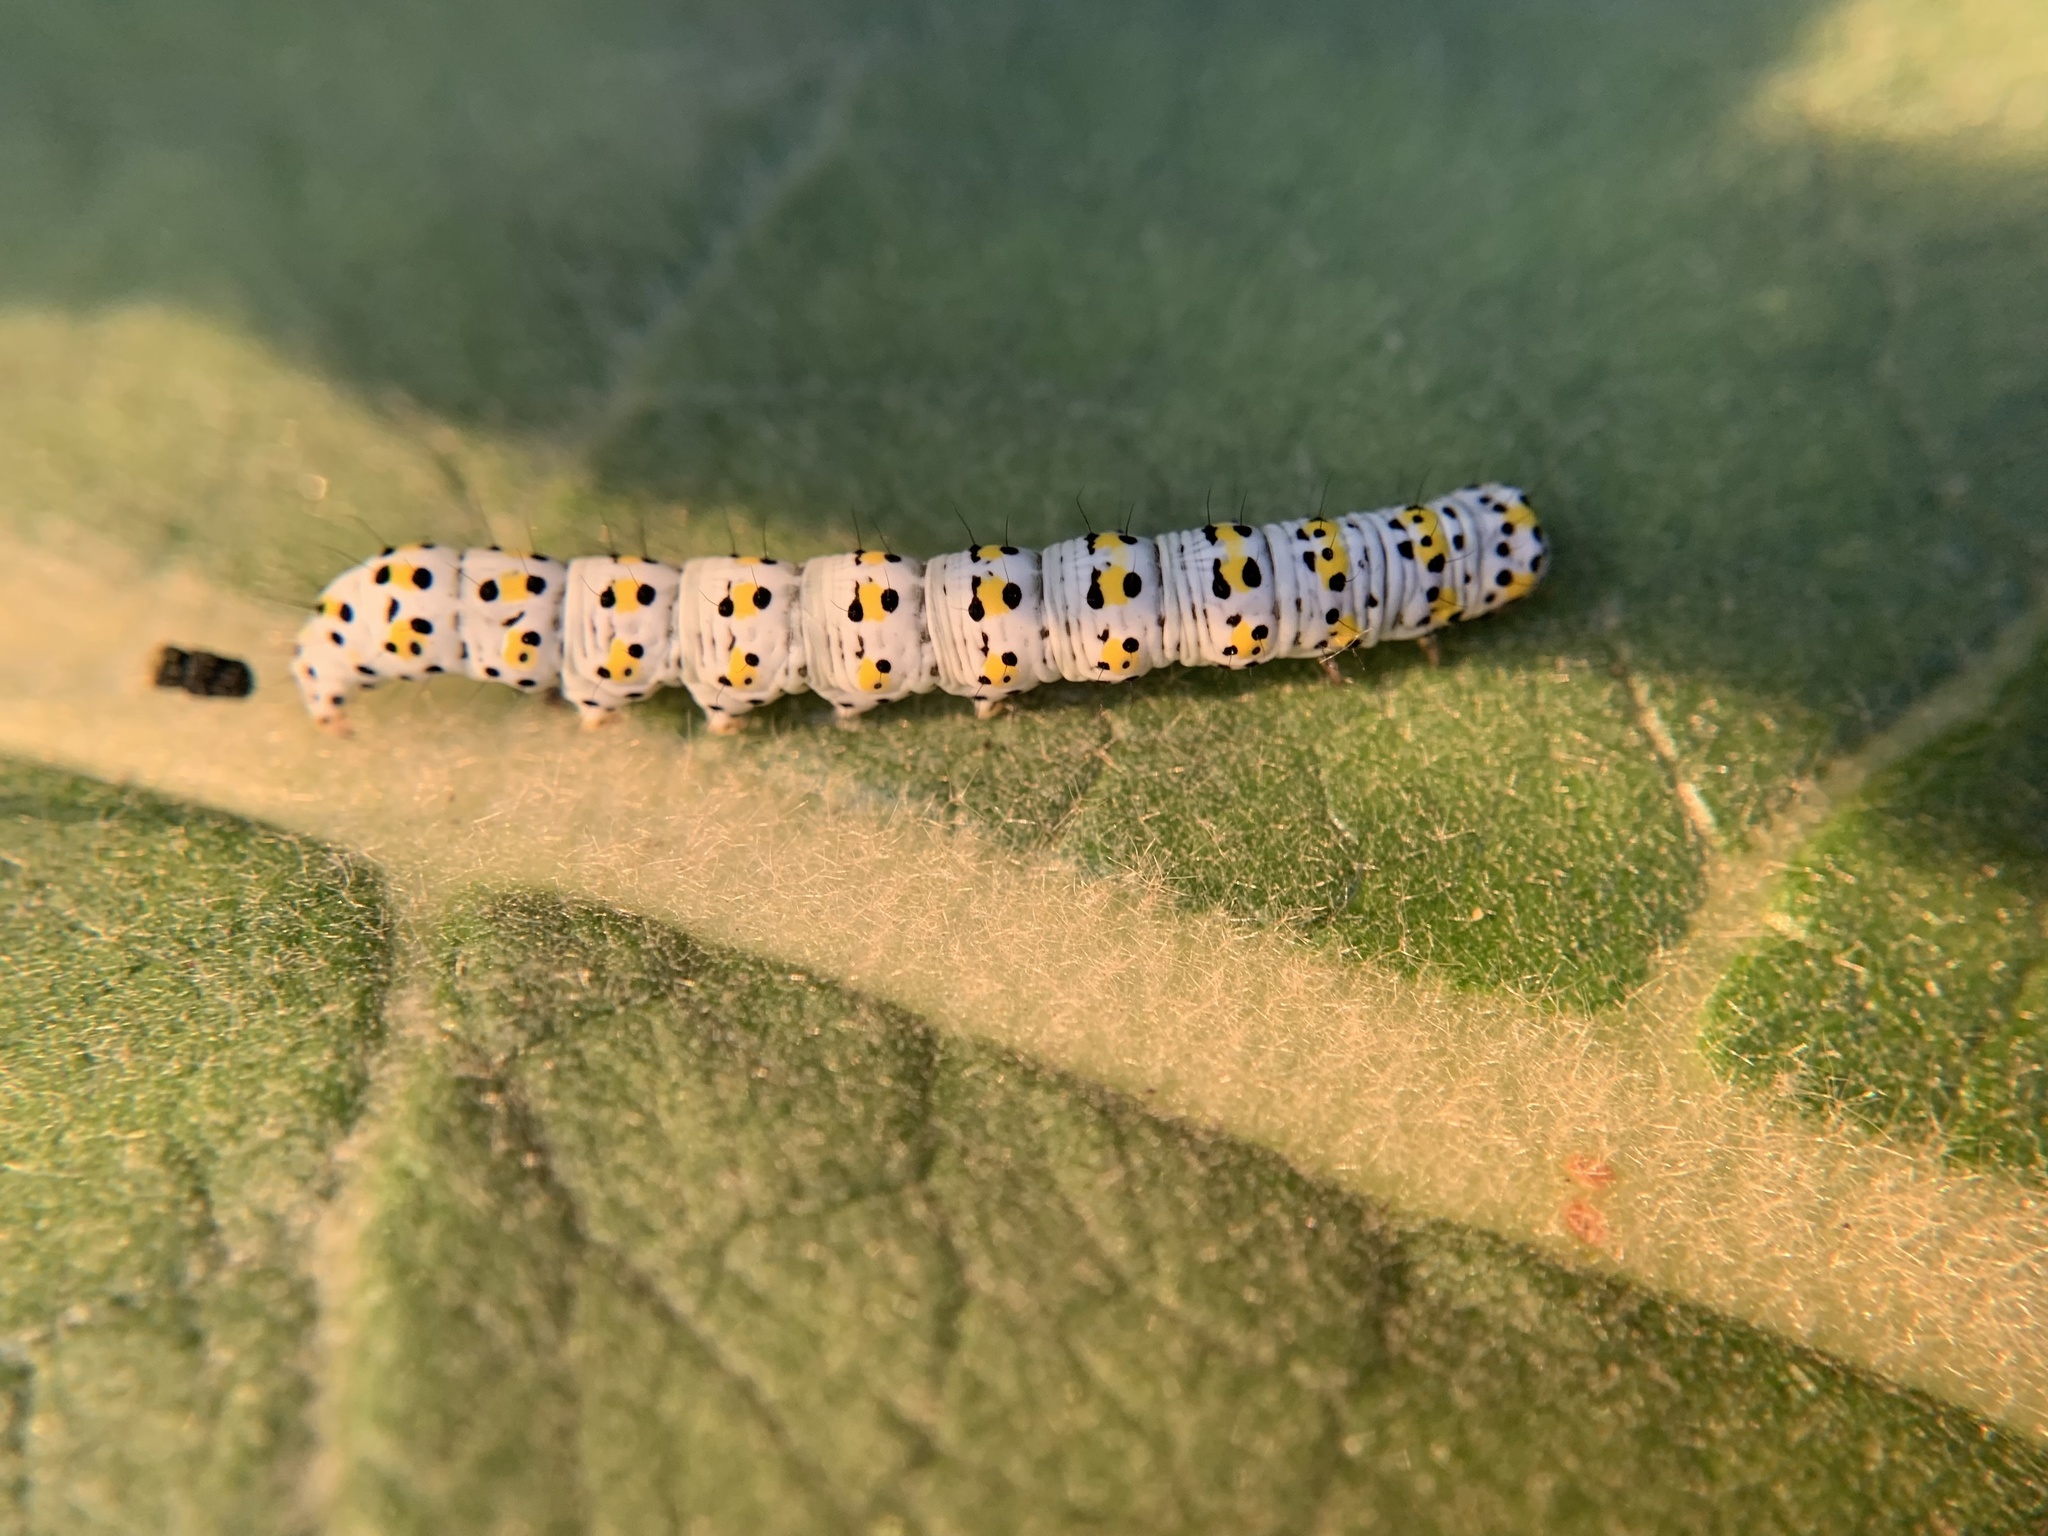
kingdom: Animalia
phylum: Arthropoda
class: Insecta
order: Lepidoptera
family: Noctuidae
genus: Cucullia
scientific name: Cucullia verbasci
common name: Mullein
